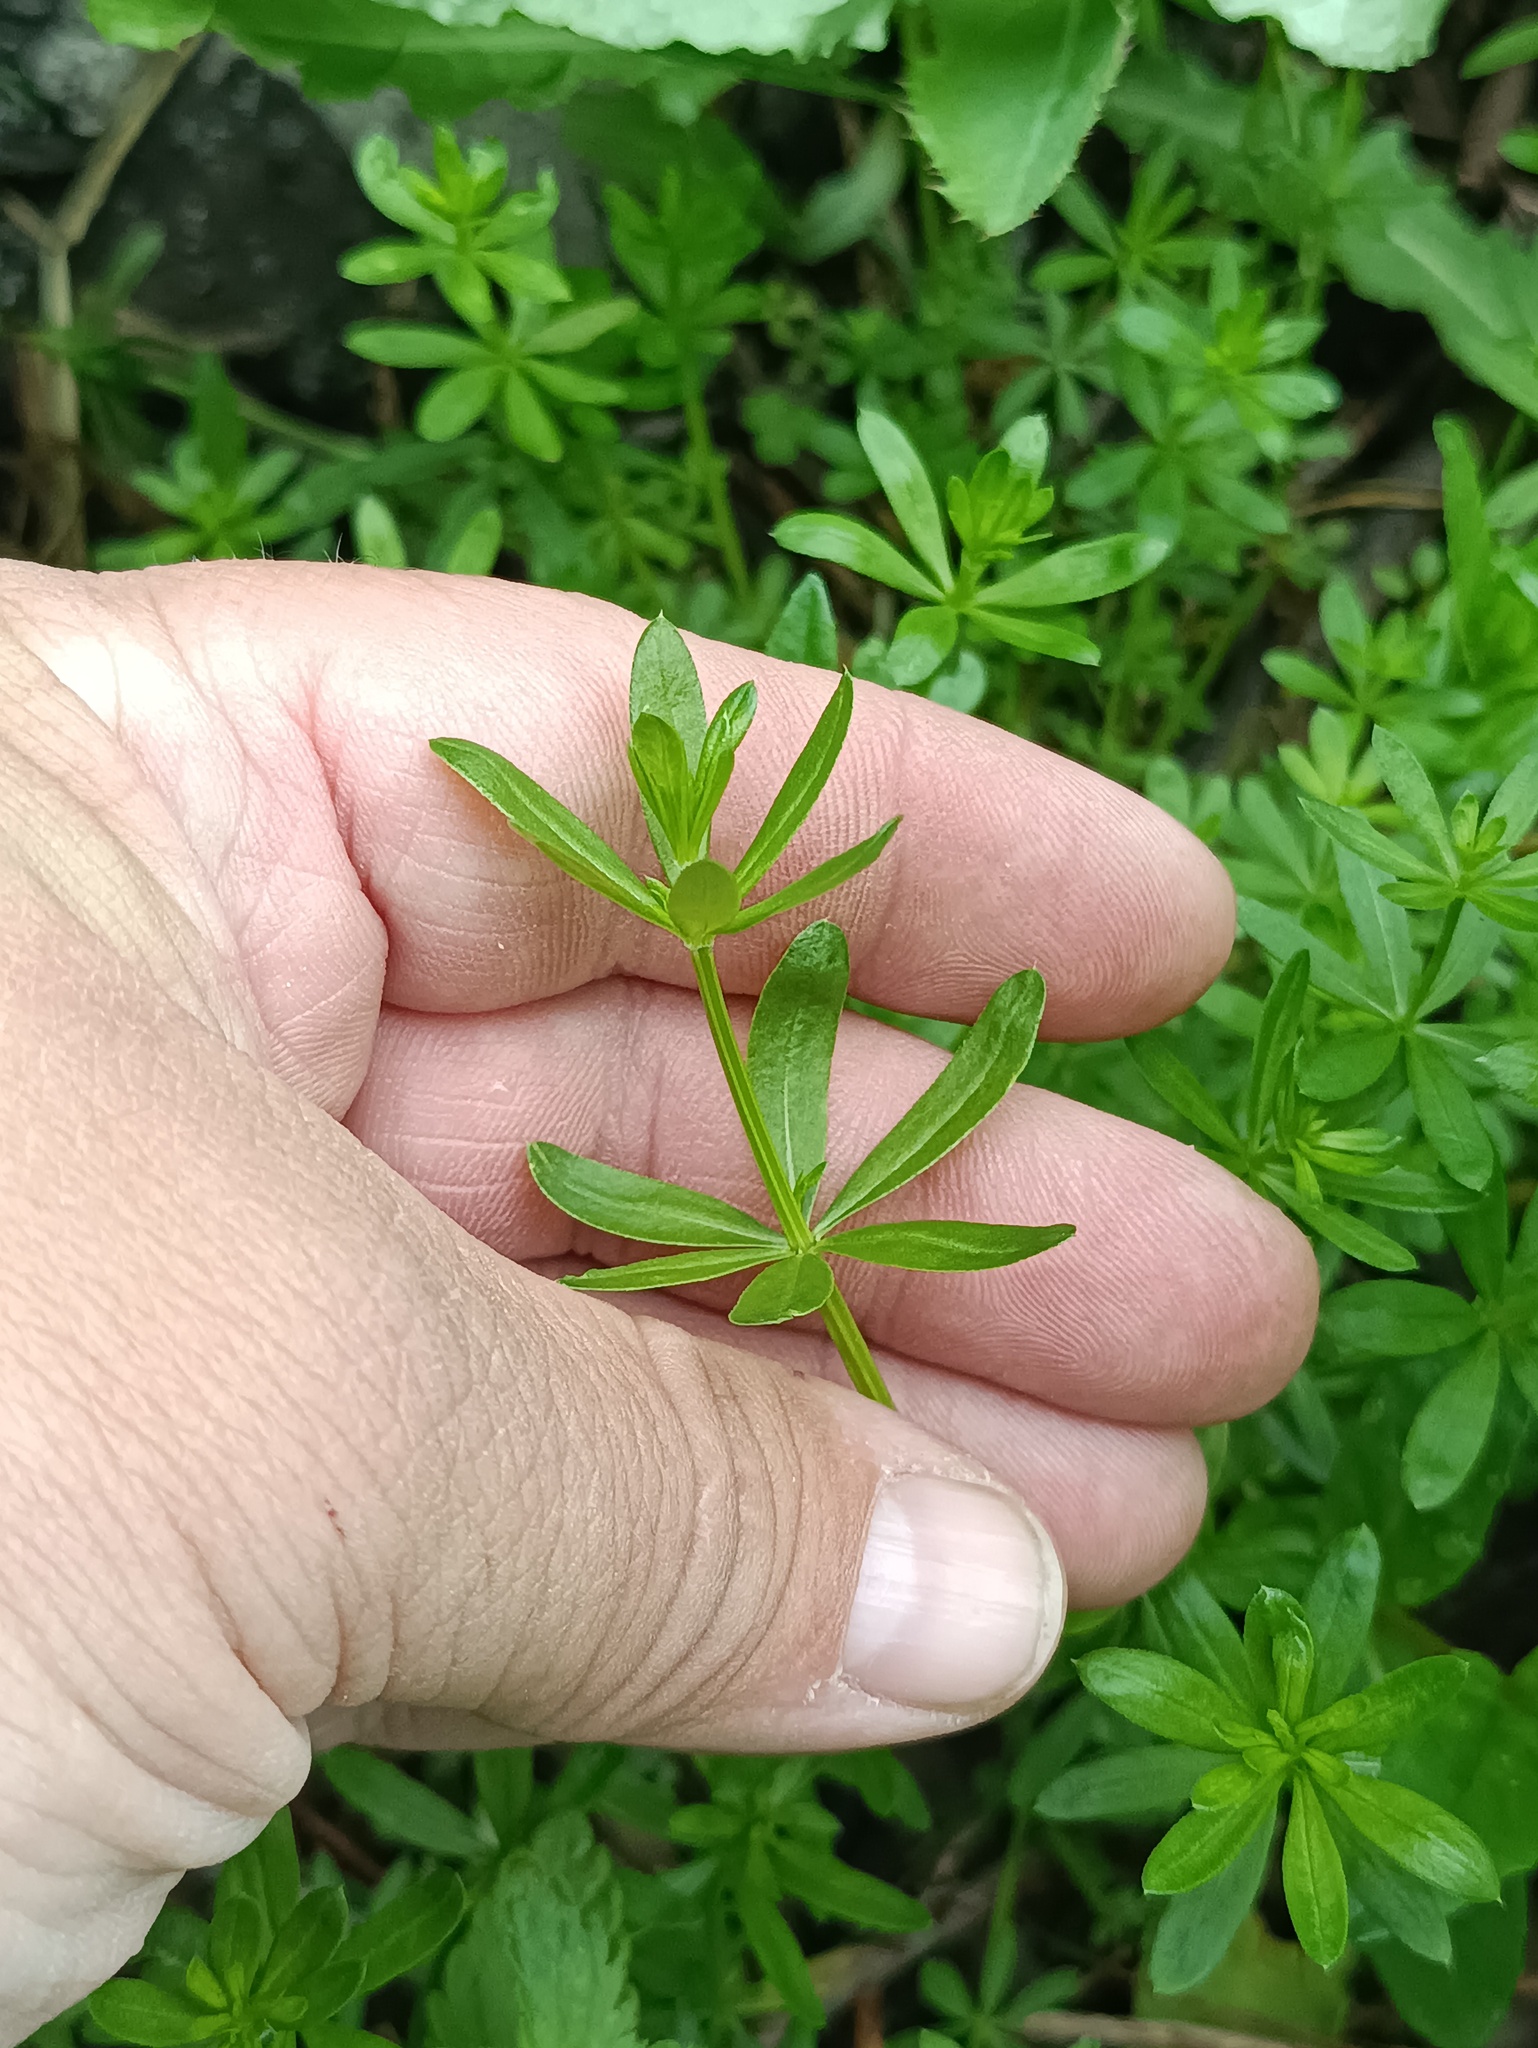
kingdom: Plantae
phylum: Tracheophyta
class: Magnoliopsida
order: Gentianales
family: Rubiaceae
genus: Galium
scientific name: Galium mollugo
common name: Hedge bedstraw
